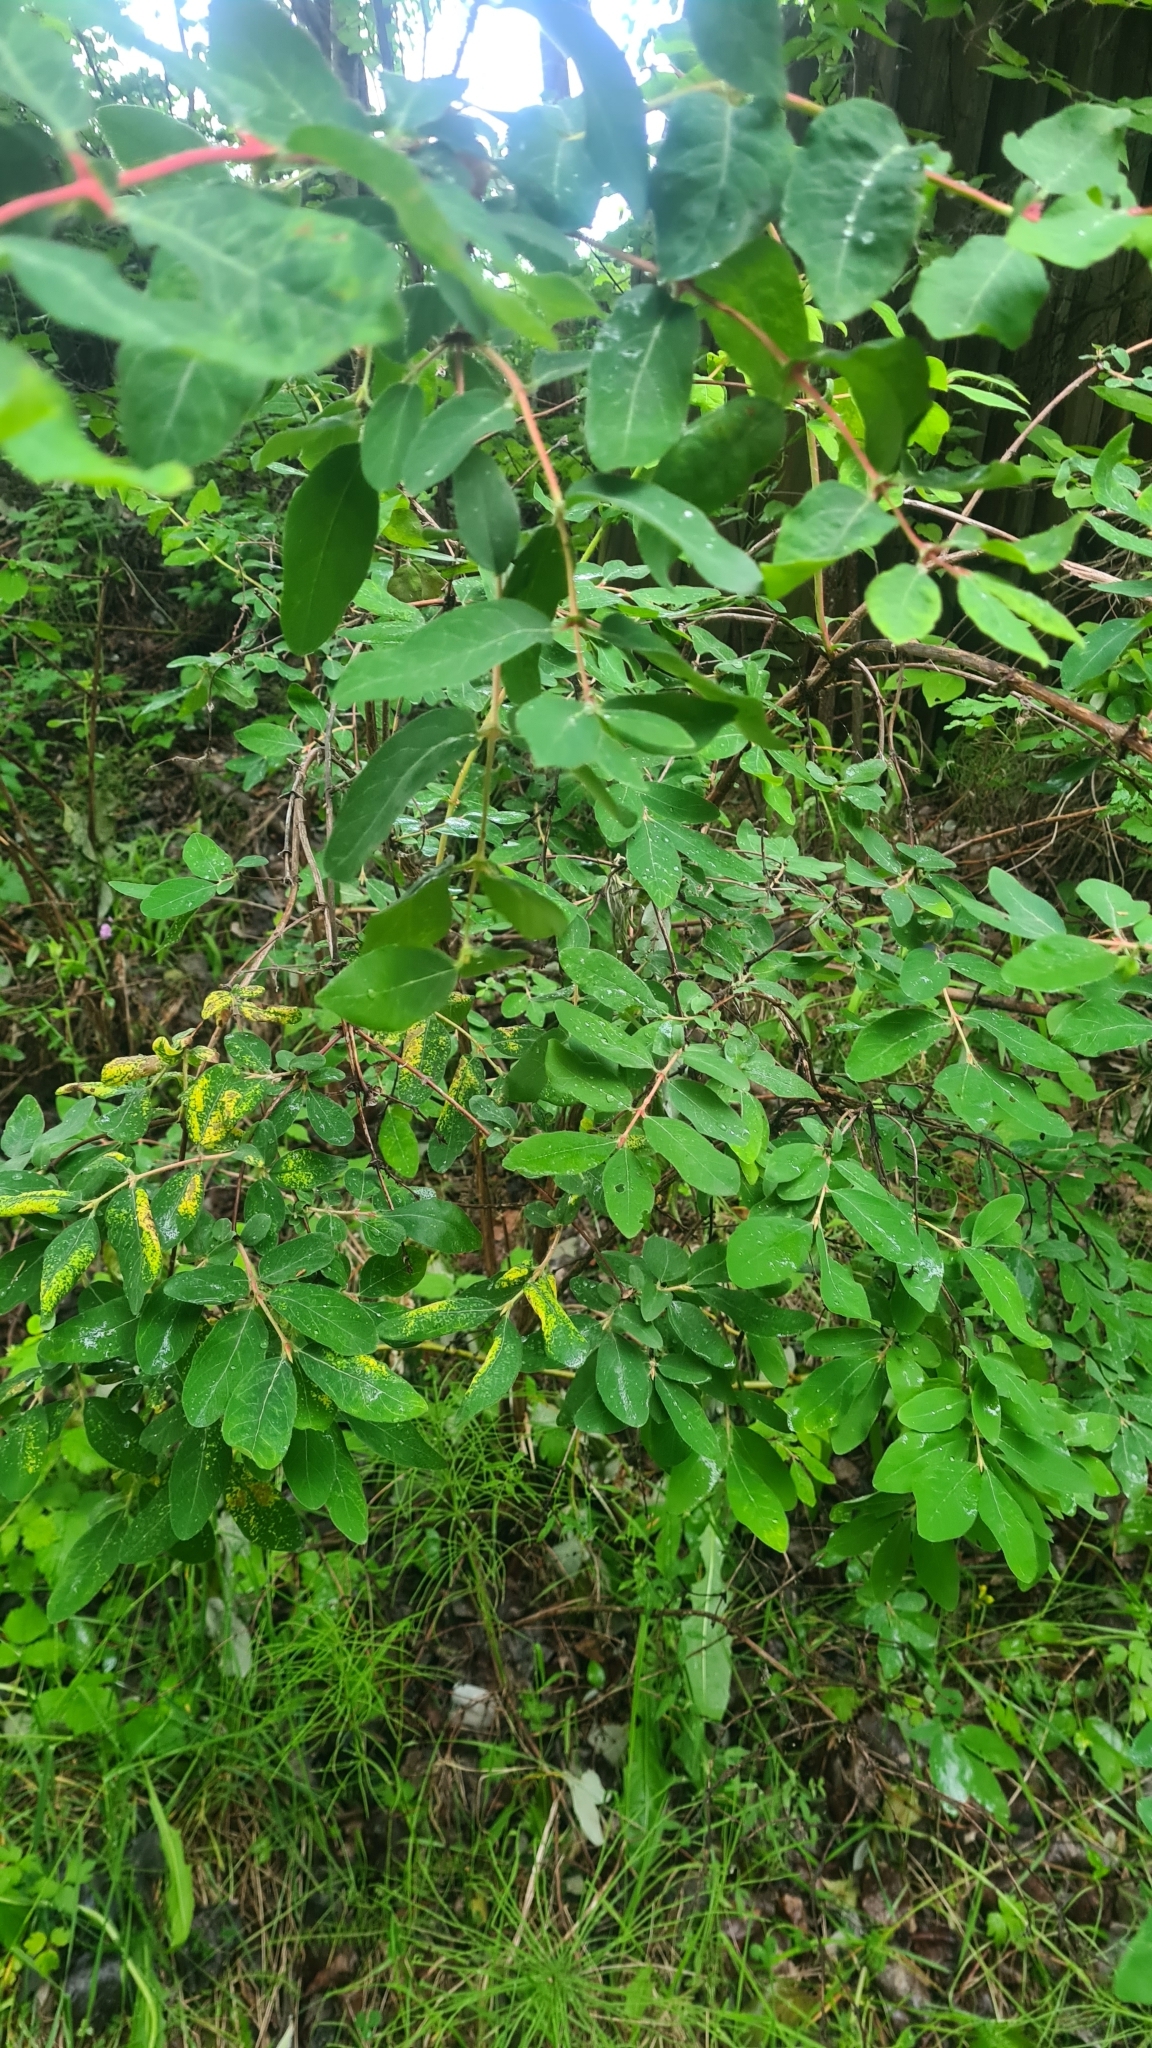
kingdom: Plantae
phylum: Tracheophyta
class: Magnoliopsida
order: Dipsacales
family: Caprifoliaceae
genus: Lonicera
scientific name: Lonicera caerulea
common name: Blue honeysuckle
